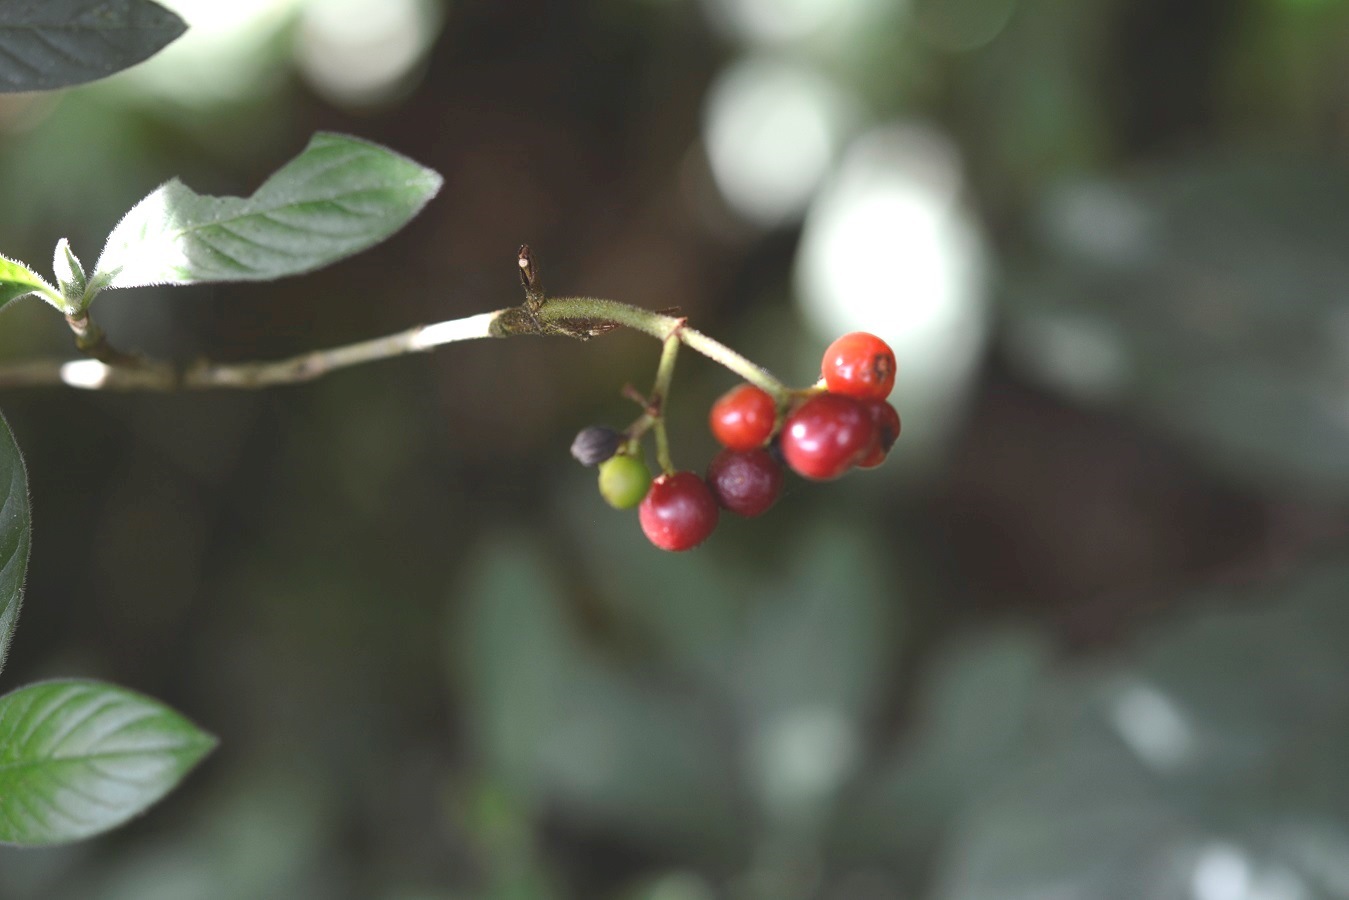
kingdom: Plantae
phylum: Tracheophyta
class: Magnoliopsida
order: Gentianales
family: Rubiaceae
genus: Psychotria
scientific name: Psychotria erythrocarpa
